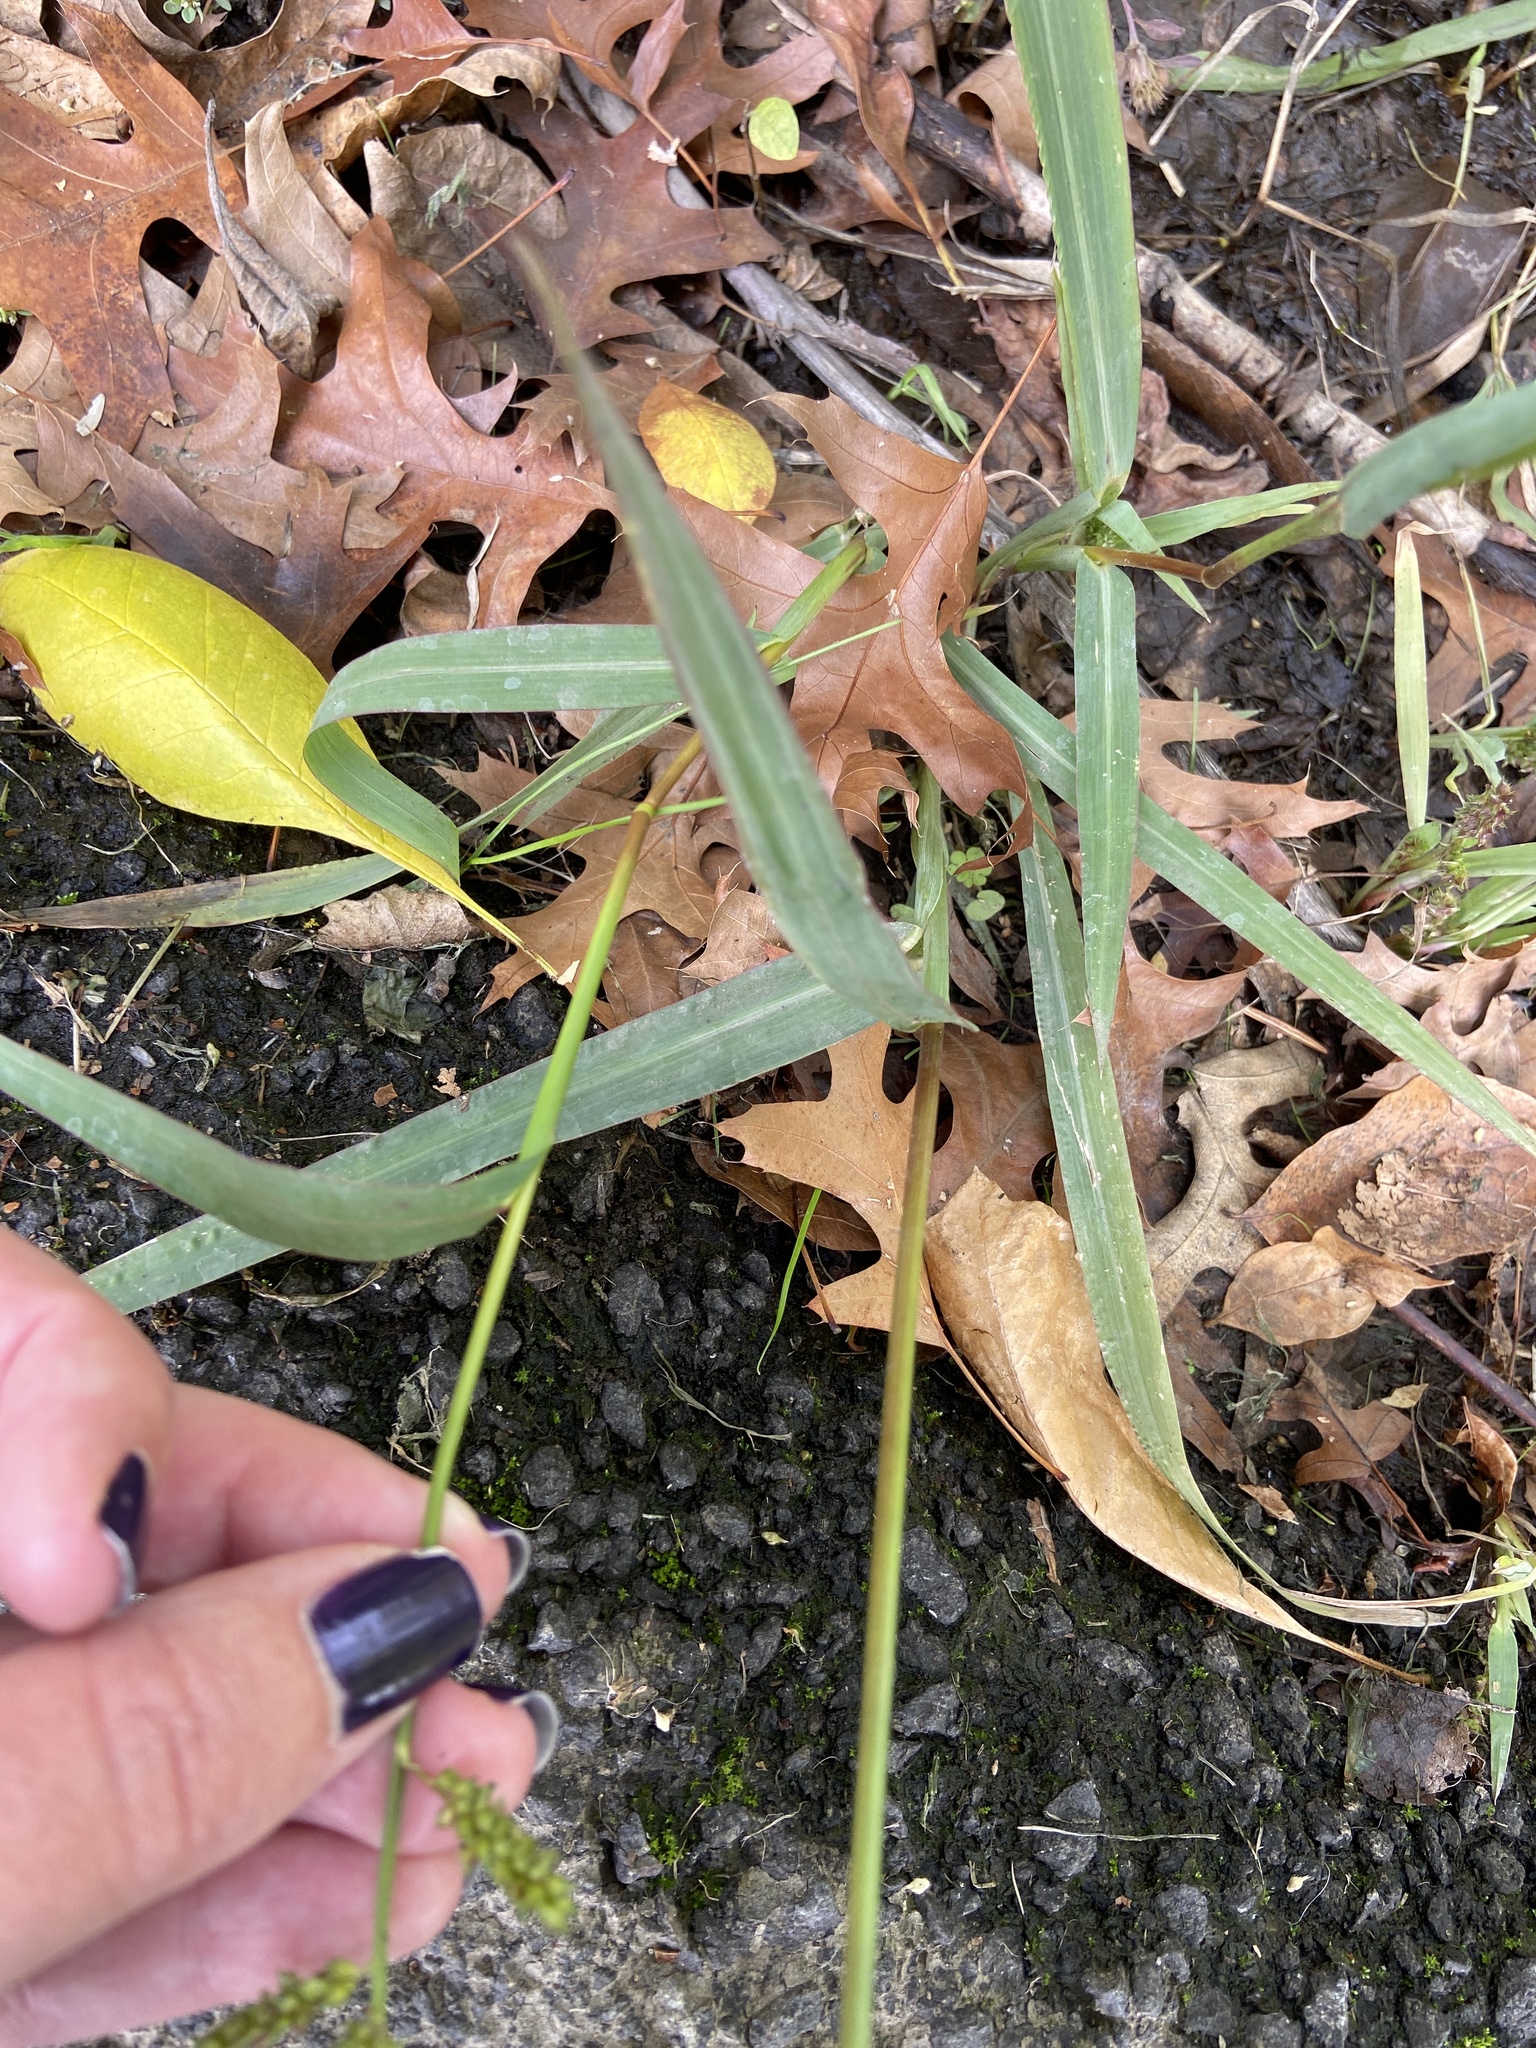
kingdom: Plantae
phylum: Tracheophyta
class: Liliopsida
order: Poales
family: Poaceae
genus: Echinochloa
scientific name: Echinochloa crus-galli
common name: Cockspur
